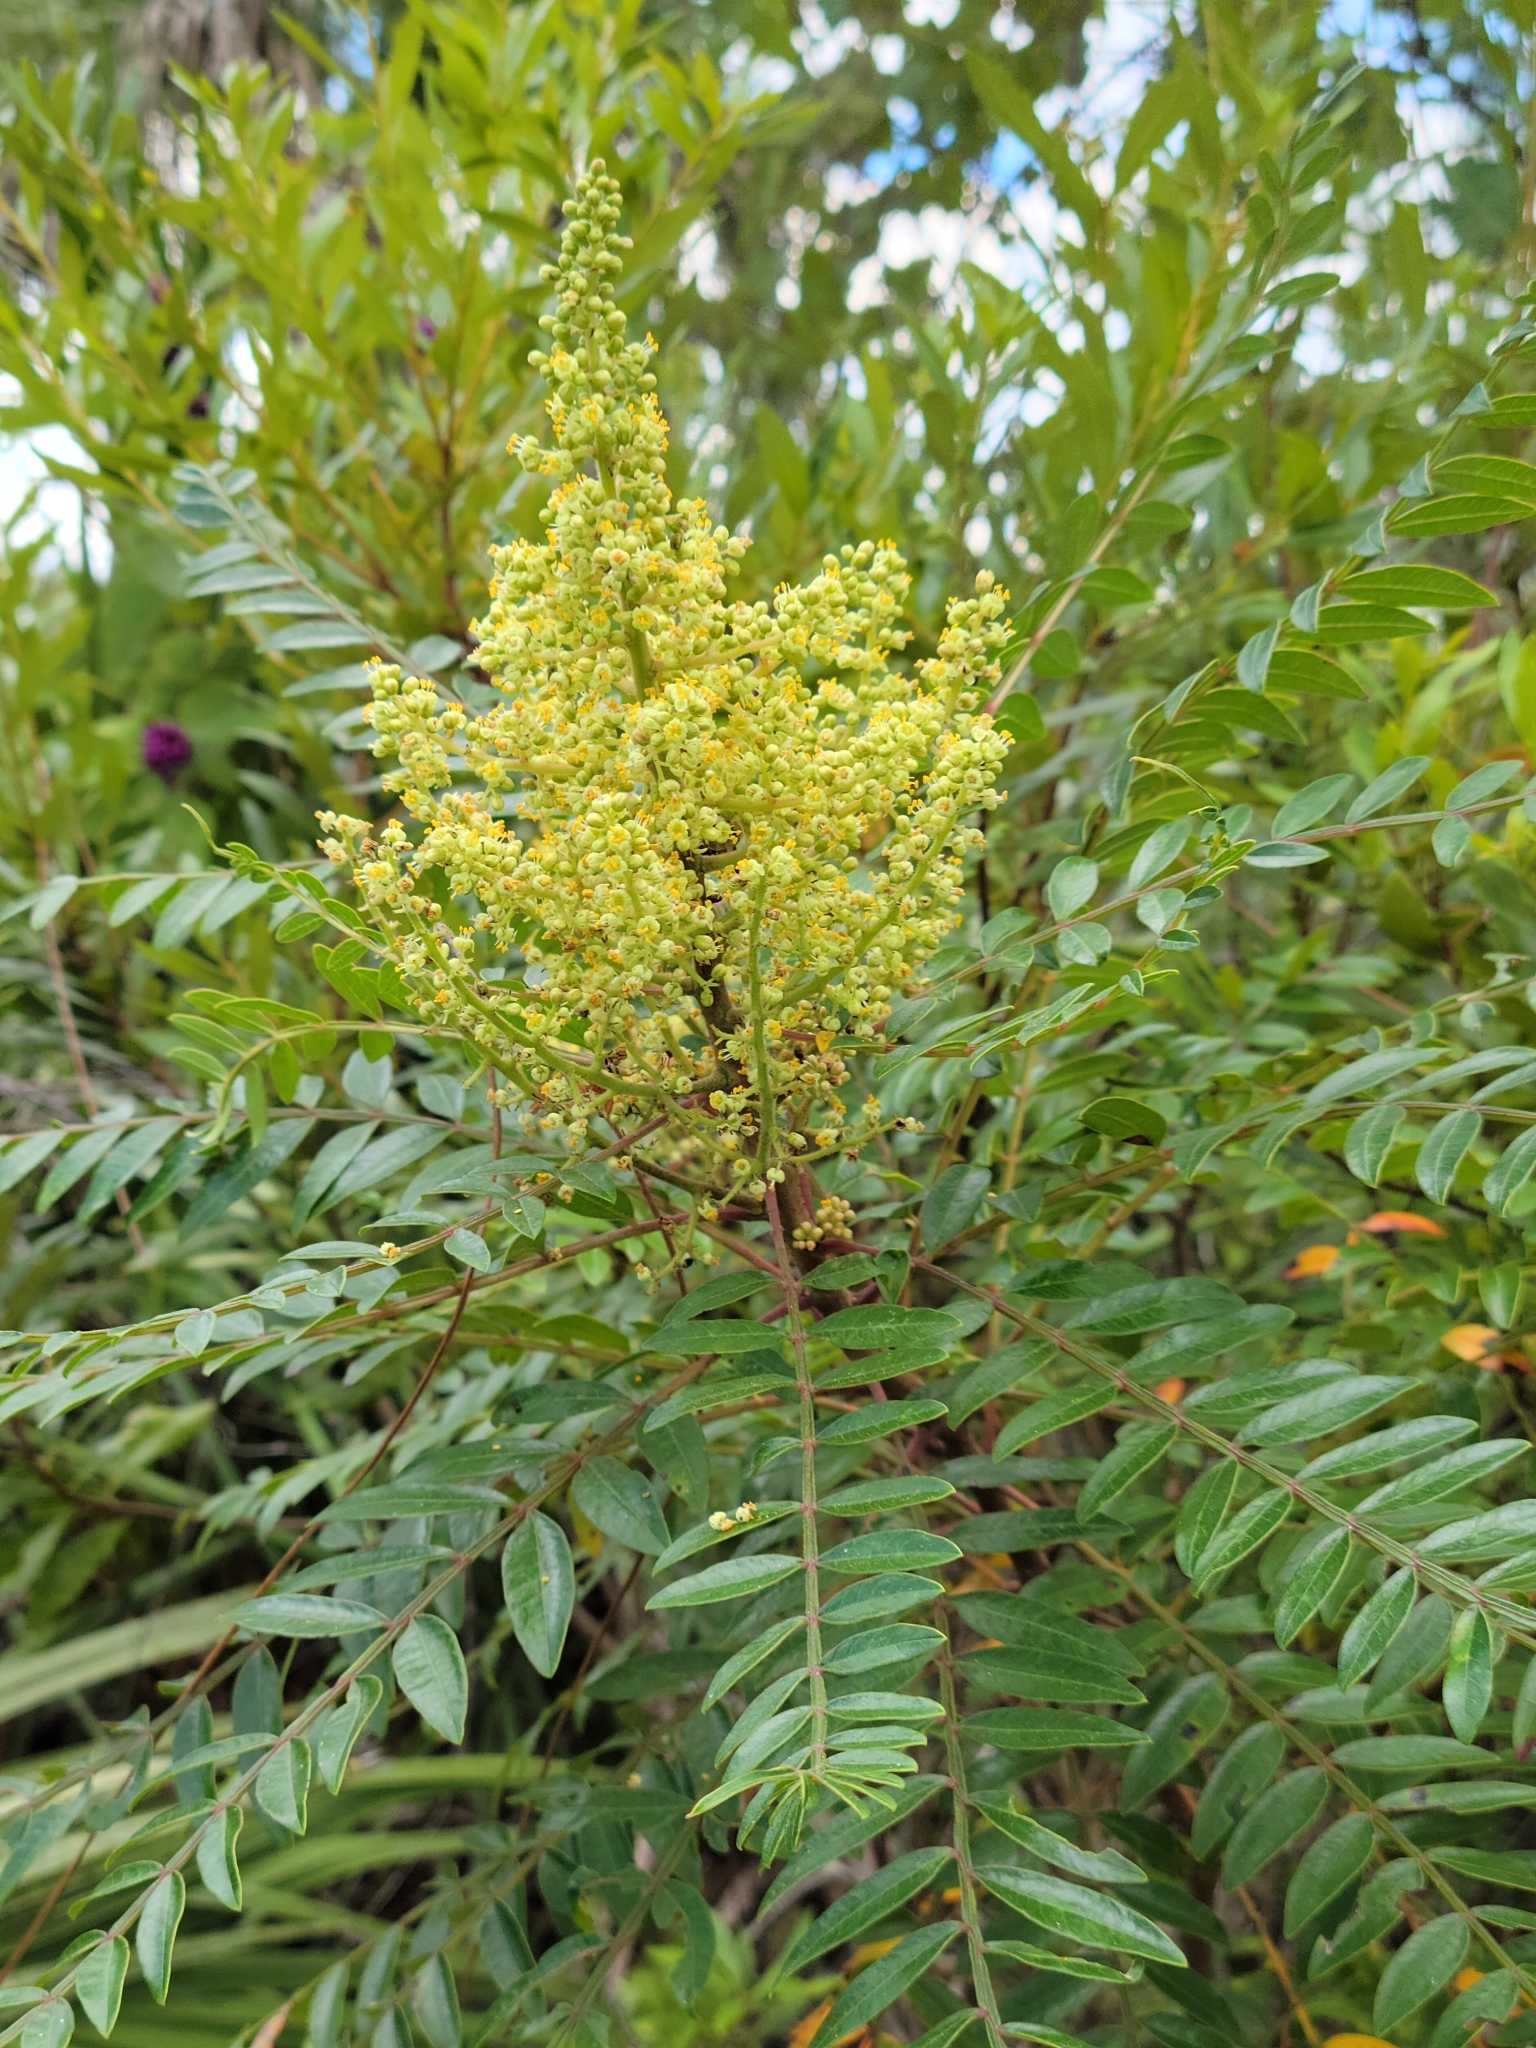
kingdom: Plantae
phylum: Tracheophyta
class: Magnoliopsida
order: Sapindales
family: Anacardiaceae
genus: Rhus
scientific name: Rhus copallina
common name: Shining sumac
